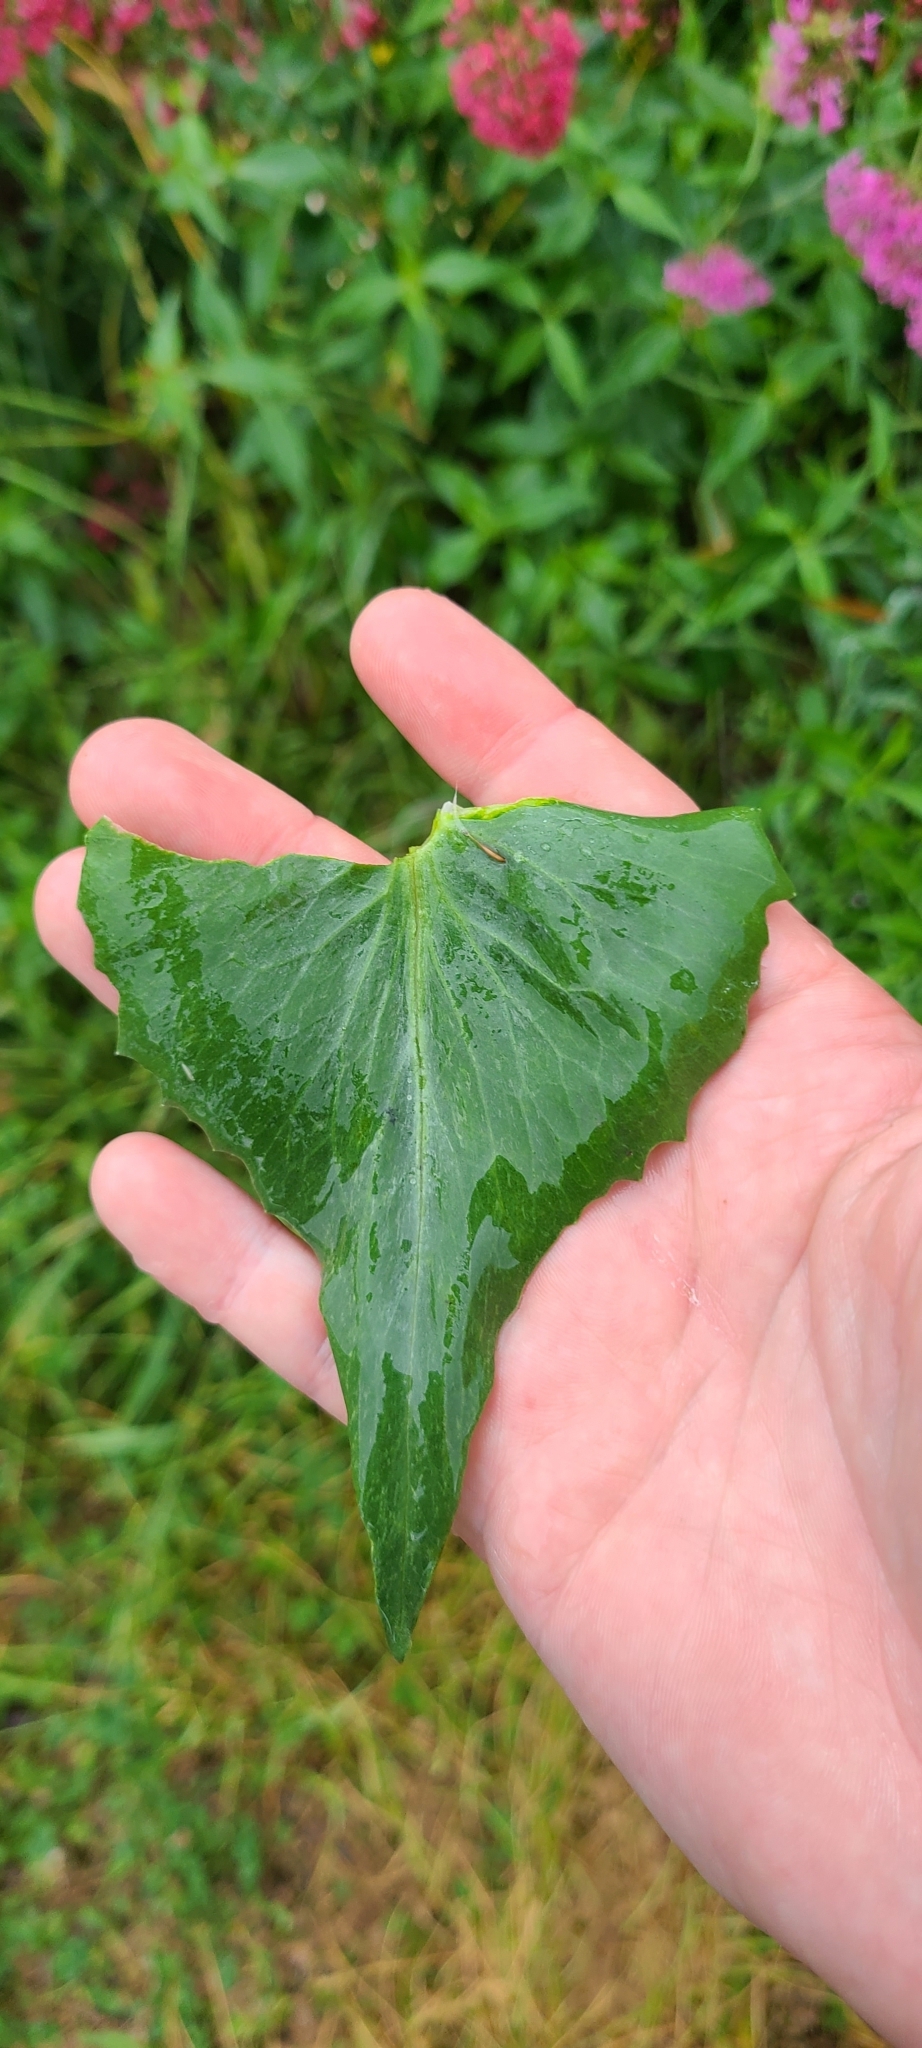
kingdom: Plantae
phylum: Tracheophyta
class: Magnoliopsida
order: Dipsacales
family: Caprifoliaceae
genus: Centranthus
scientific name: Centranthus ruber
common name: Red valerian
